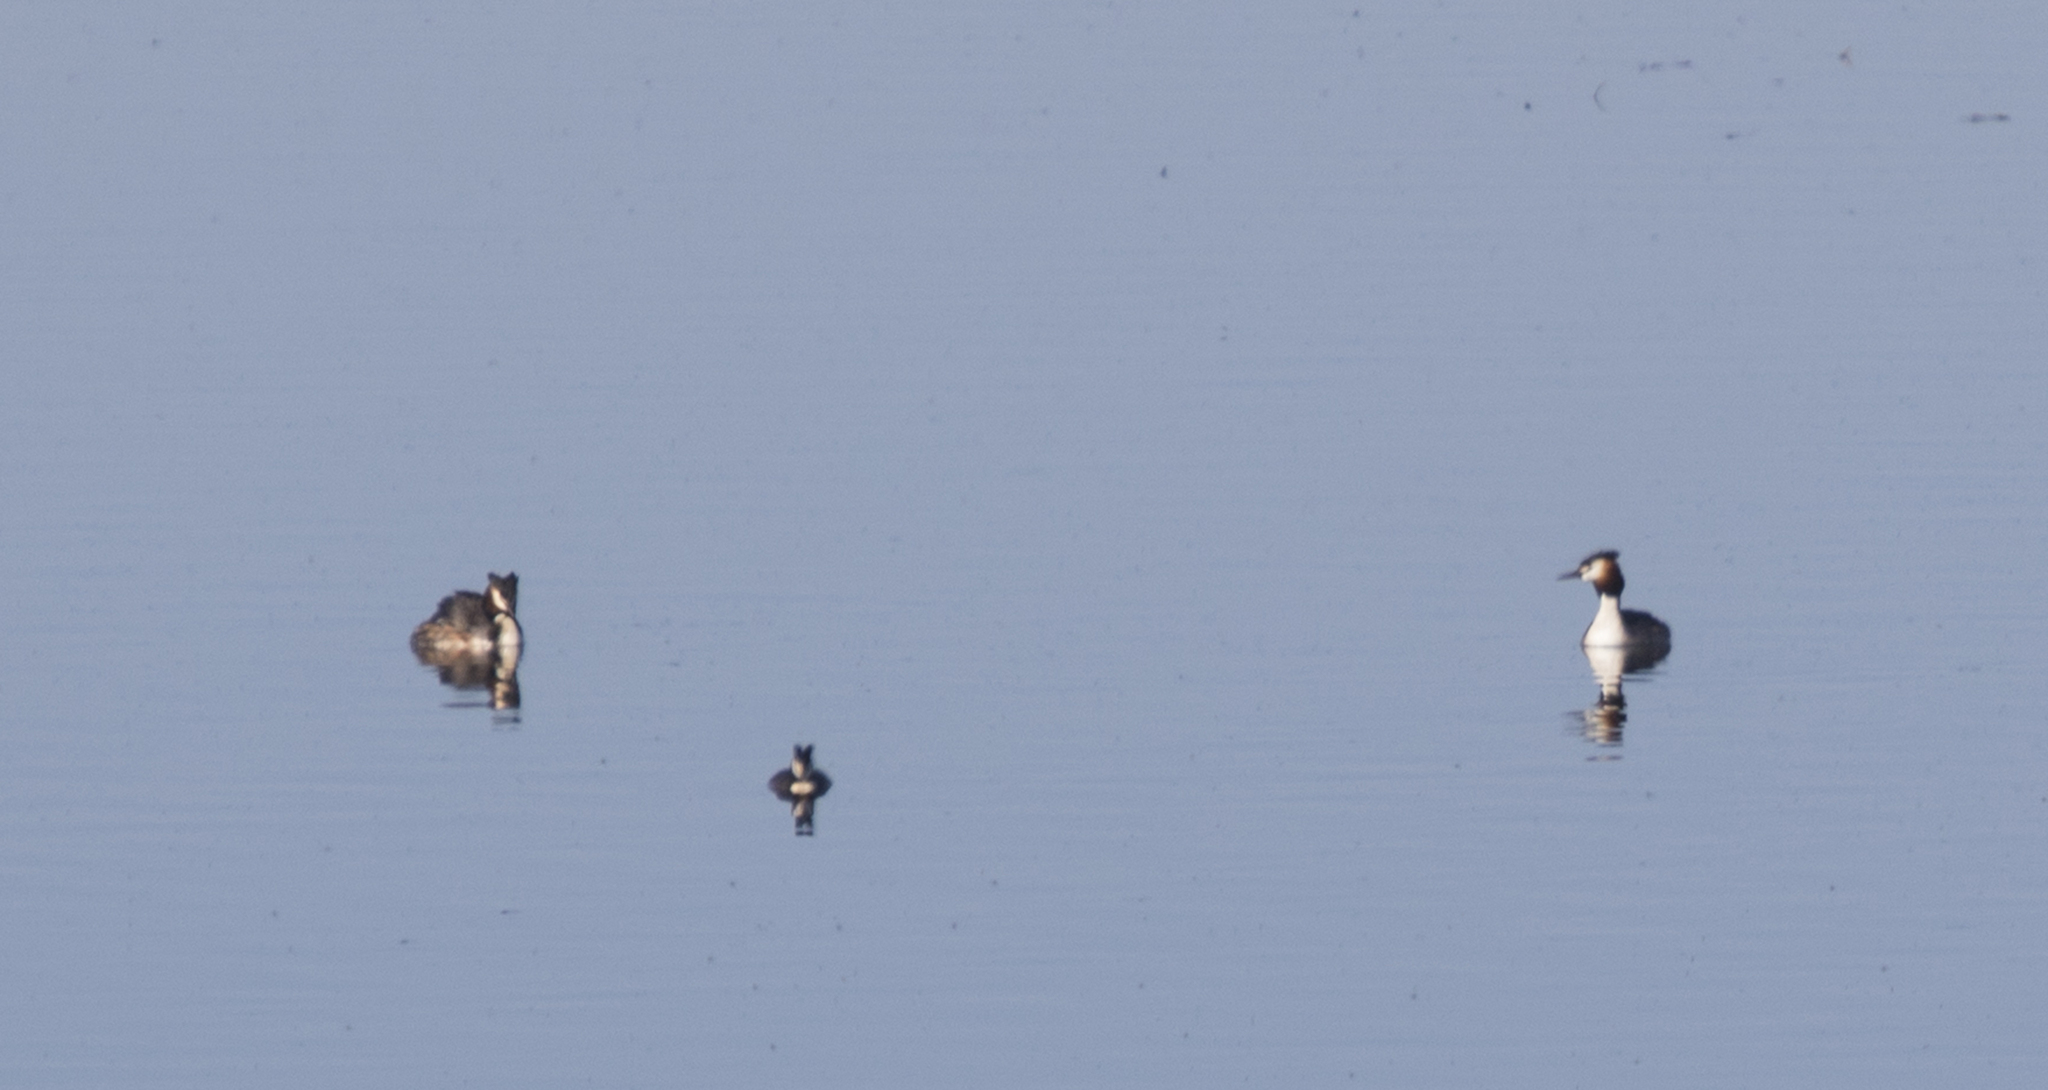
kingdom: Animalia
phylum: Chordata
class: Aves
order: Podicipediformes
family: Podicipedidae
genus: Podiceps
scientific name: Podiceps cristatus
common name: Great crested grebe
